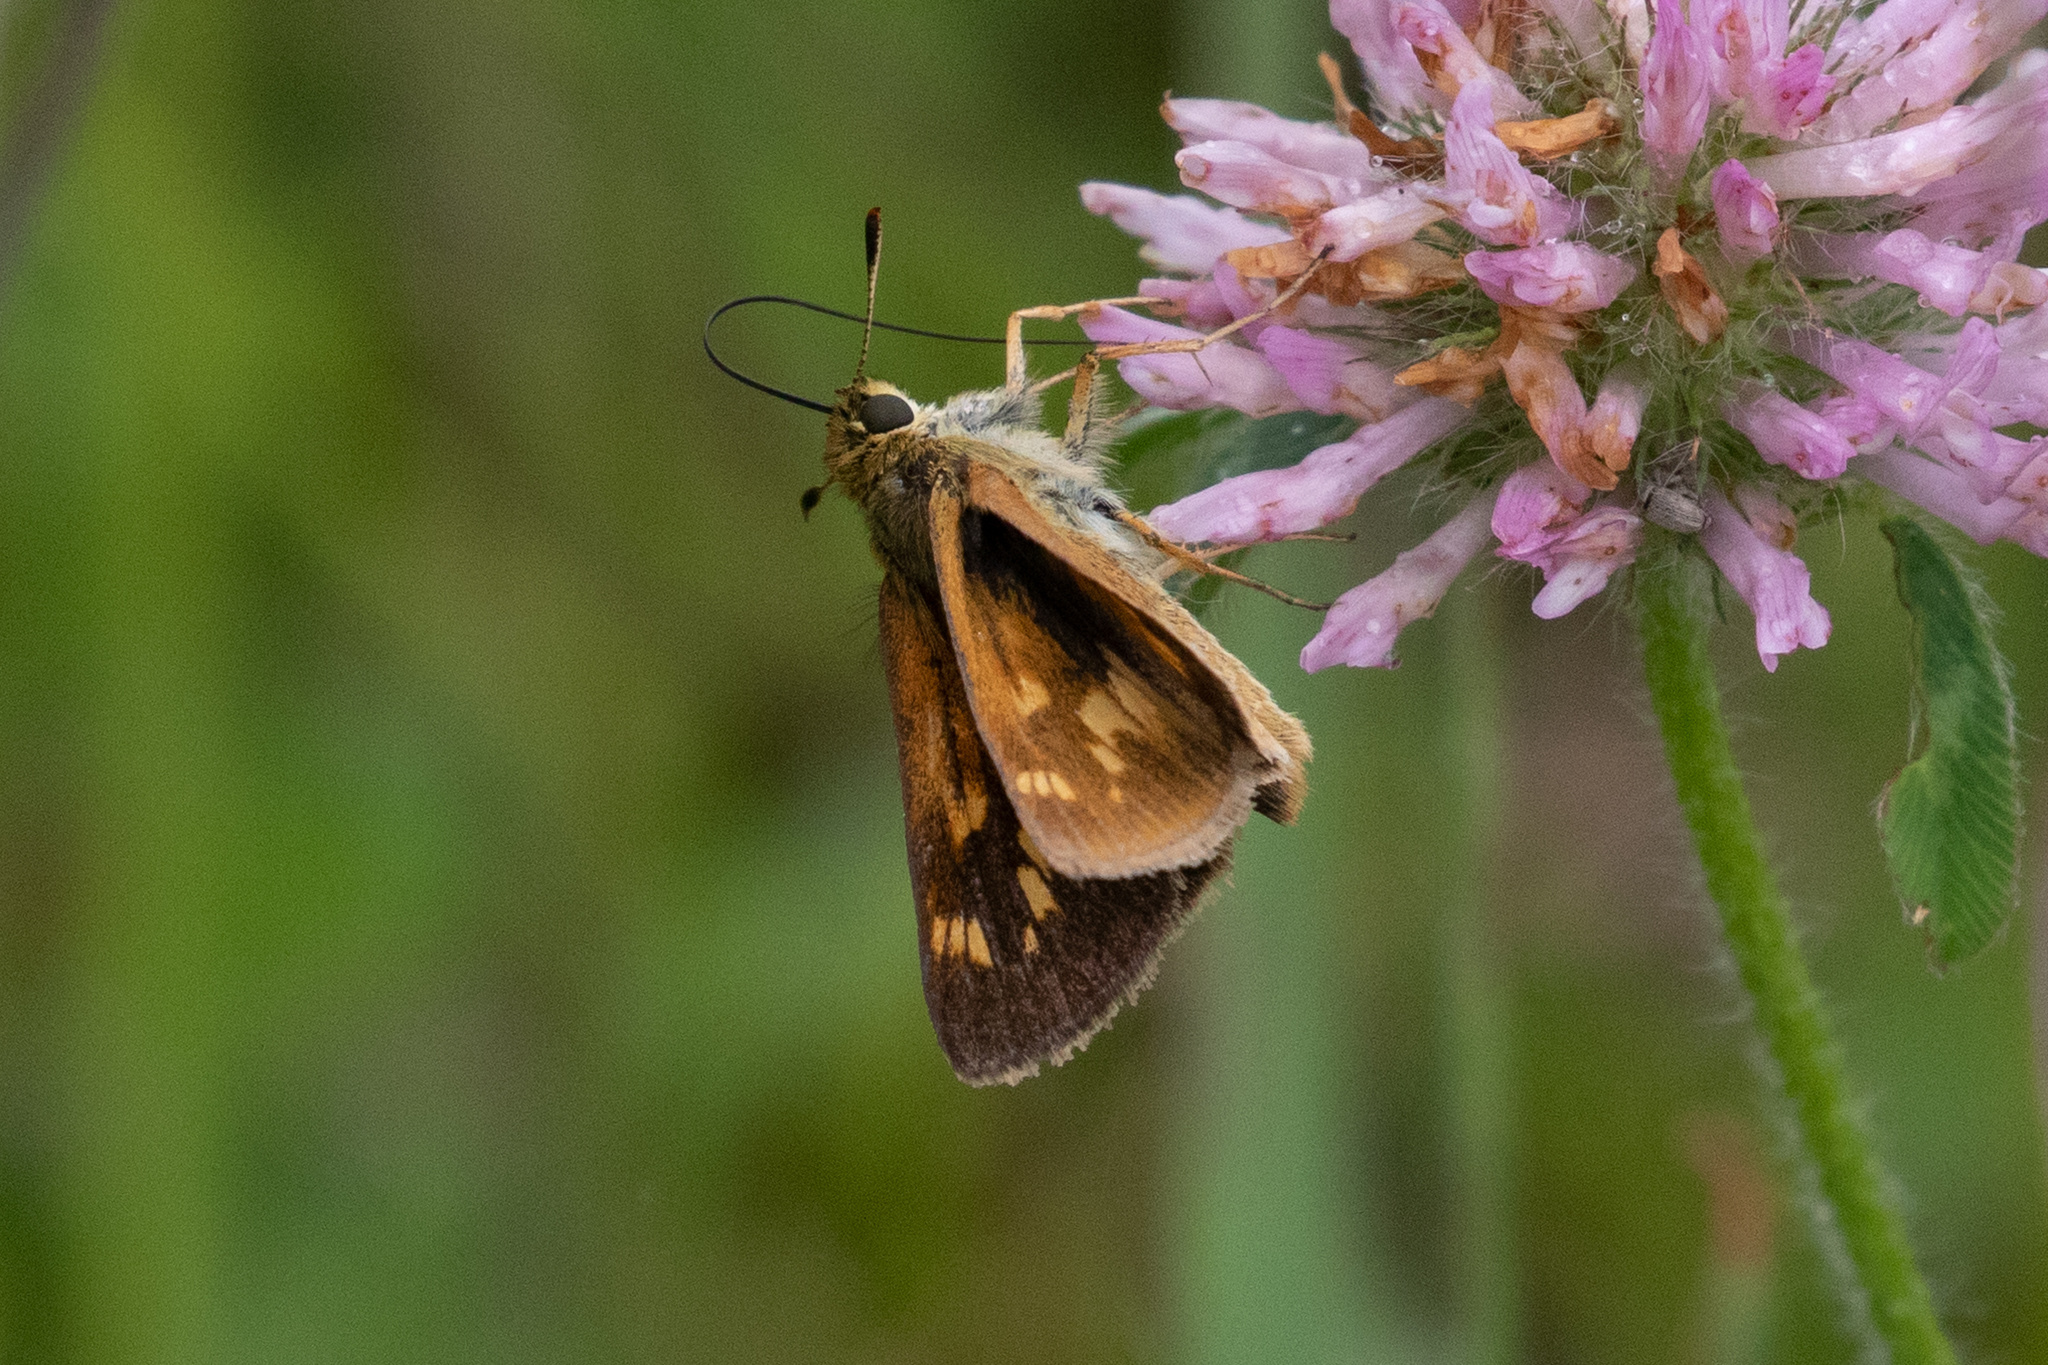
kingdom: Animalia
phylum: Arthropoda
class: Insecta
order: Lepidoptera
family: Hesperiidae
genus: Polites
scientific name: Polites mystic
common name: Long dash
